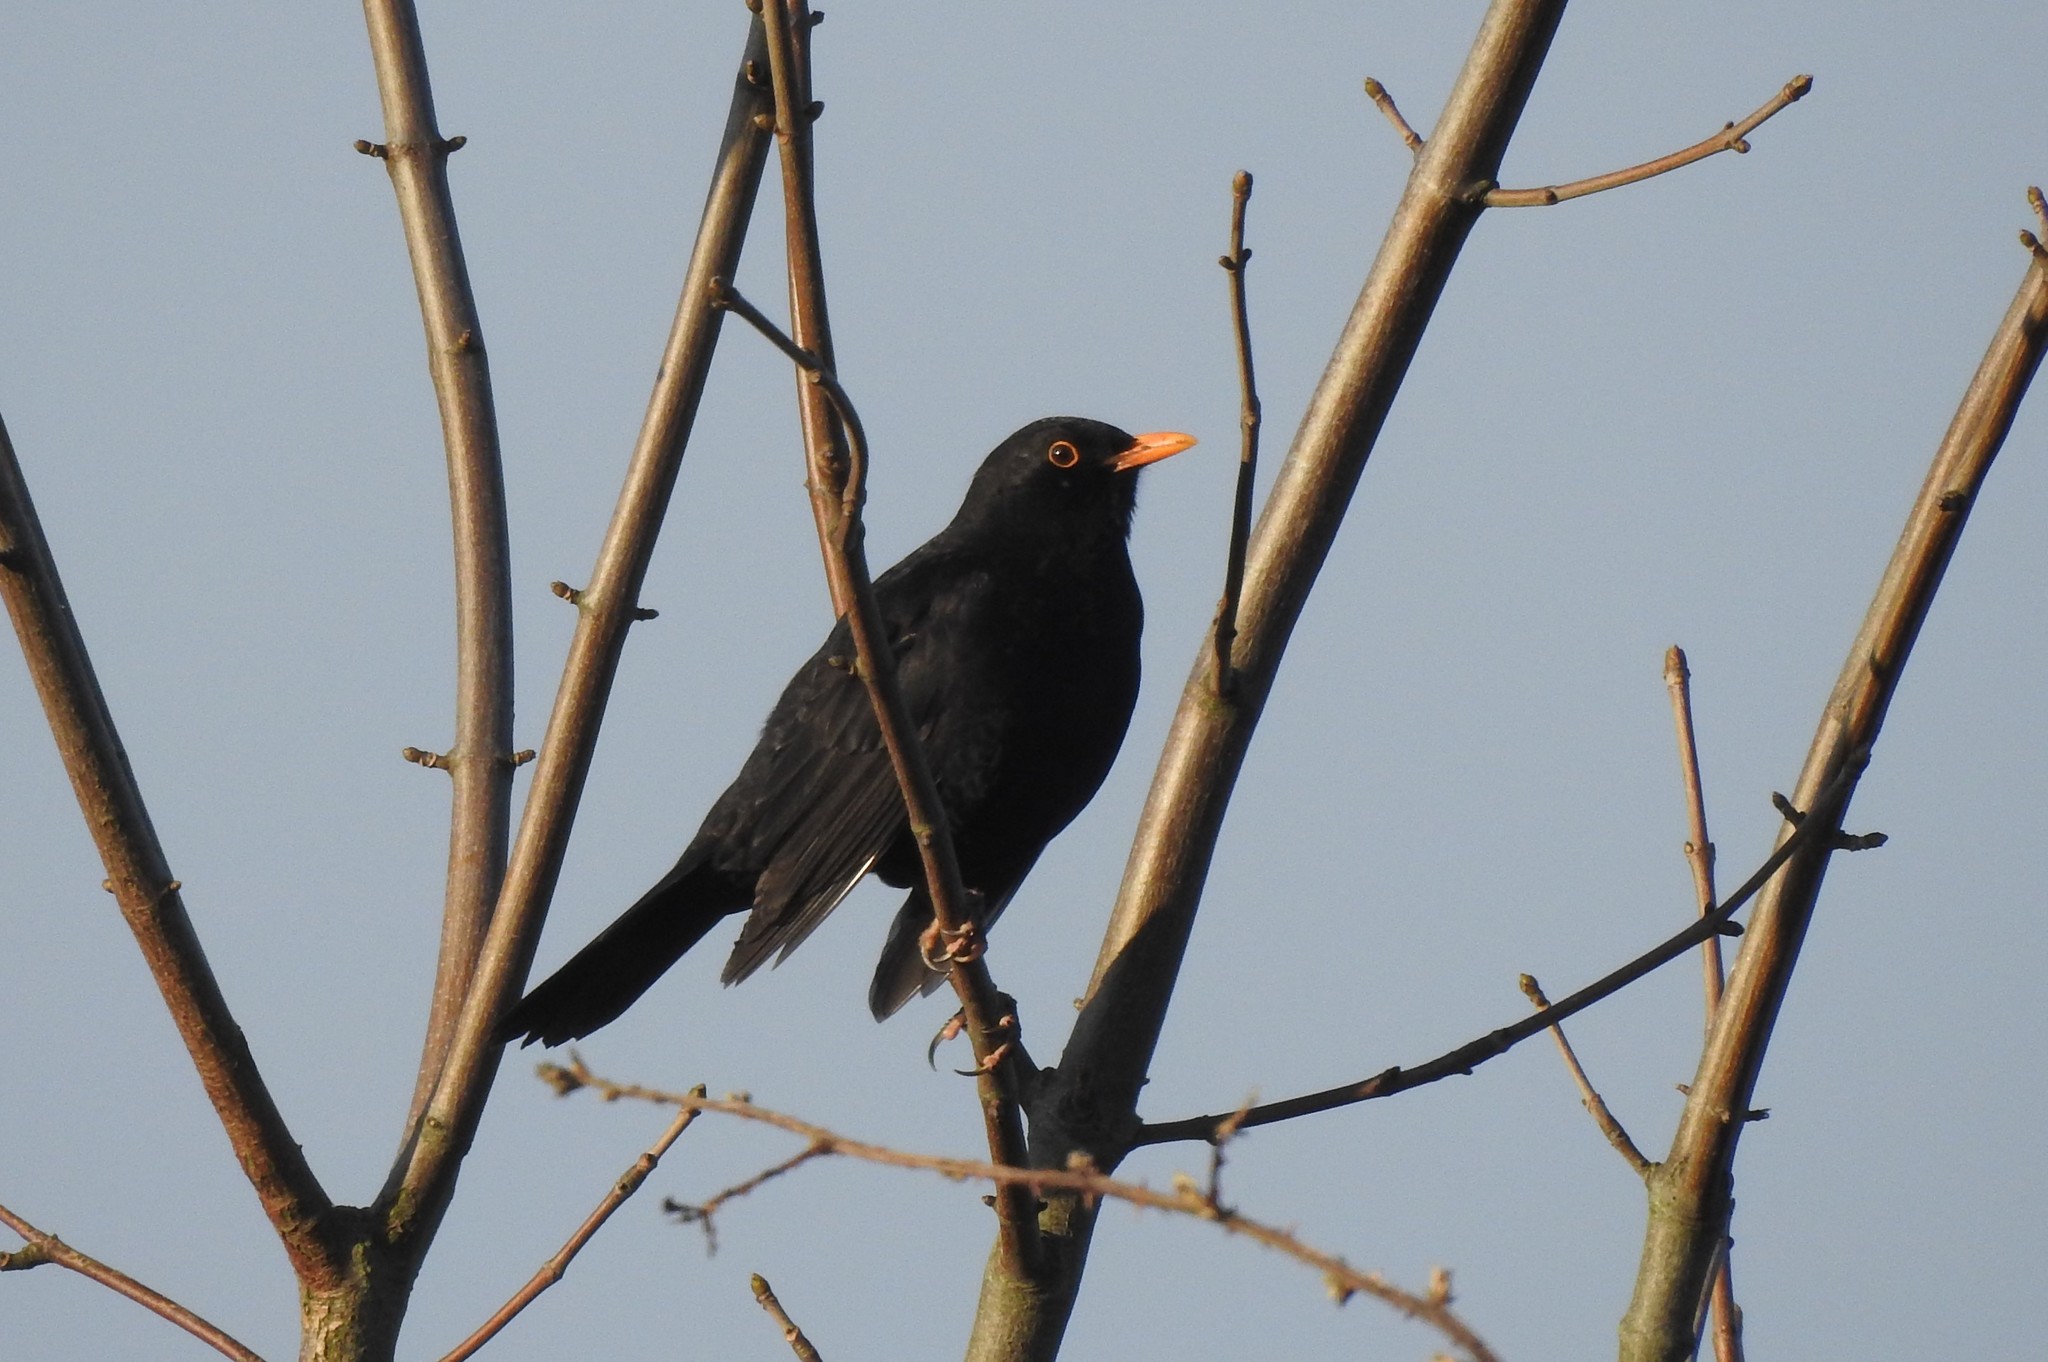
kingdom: Animalia
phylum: Chordata
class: Aves
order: Passeriformes
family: Turdidae
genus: Turdus
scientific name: Turdus merula
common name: Common blackbird
